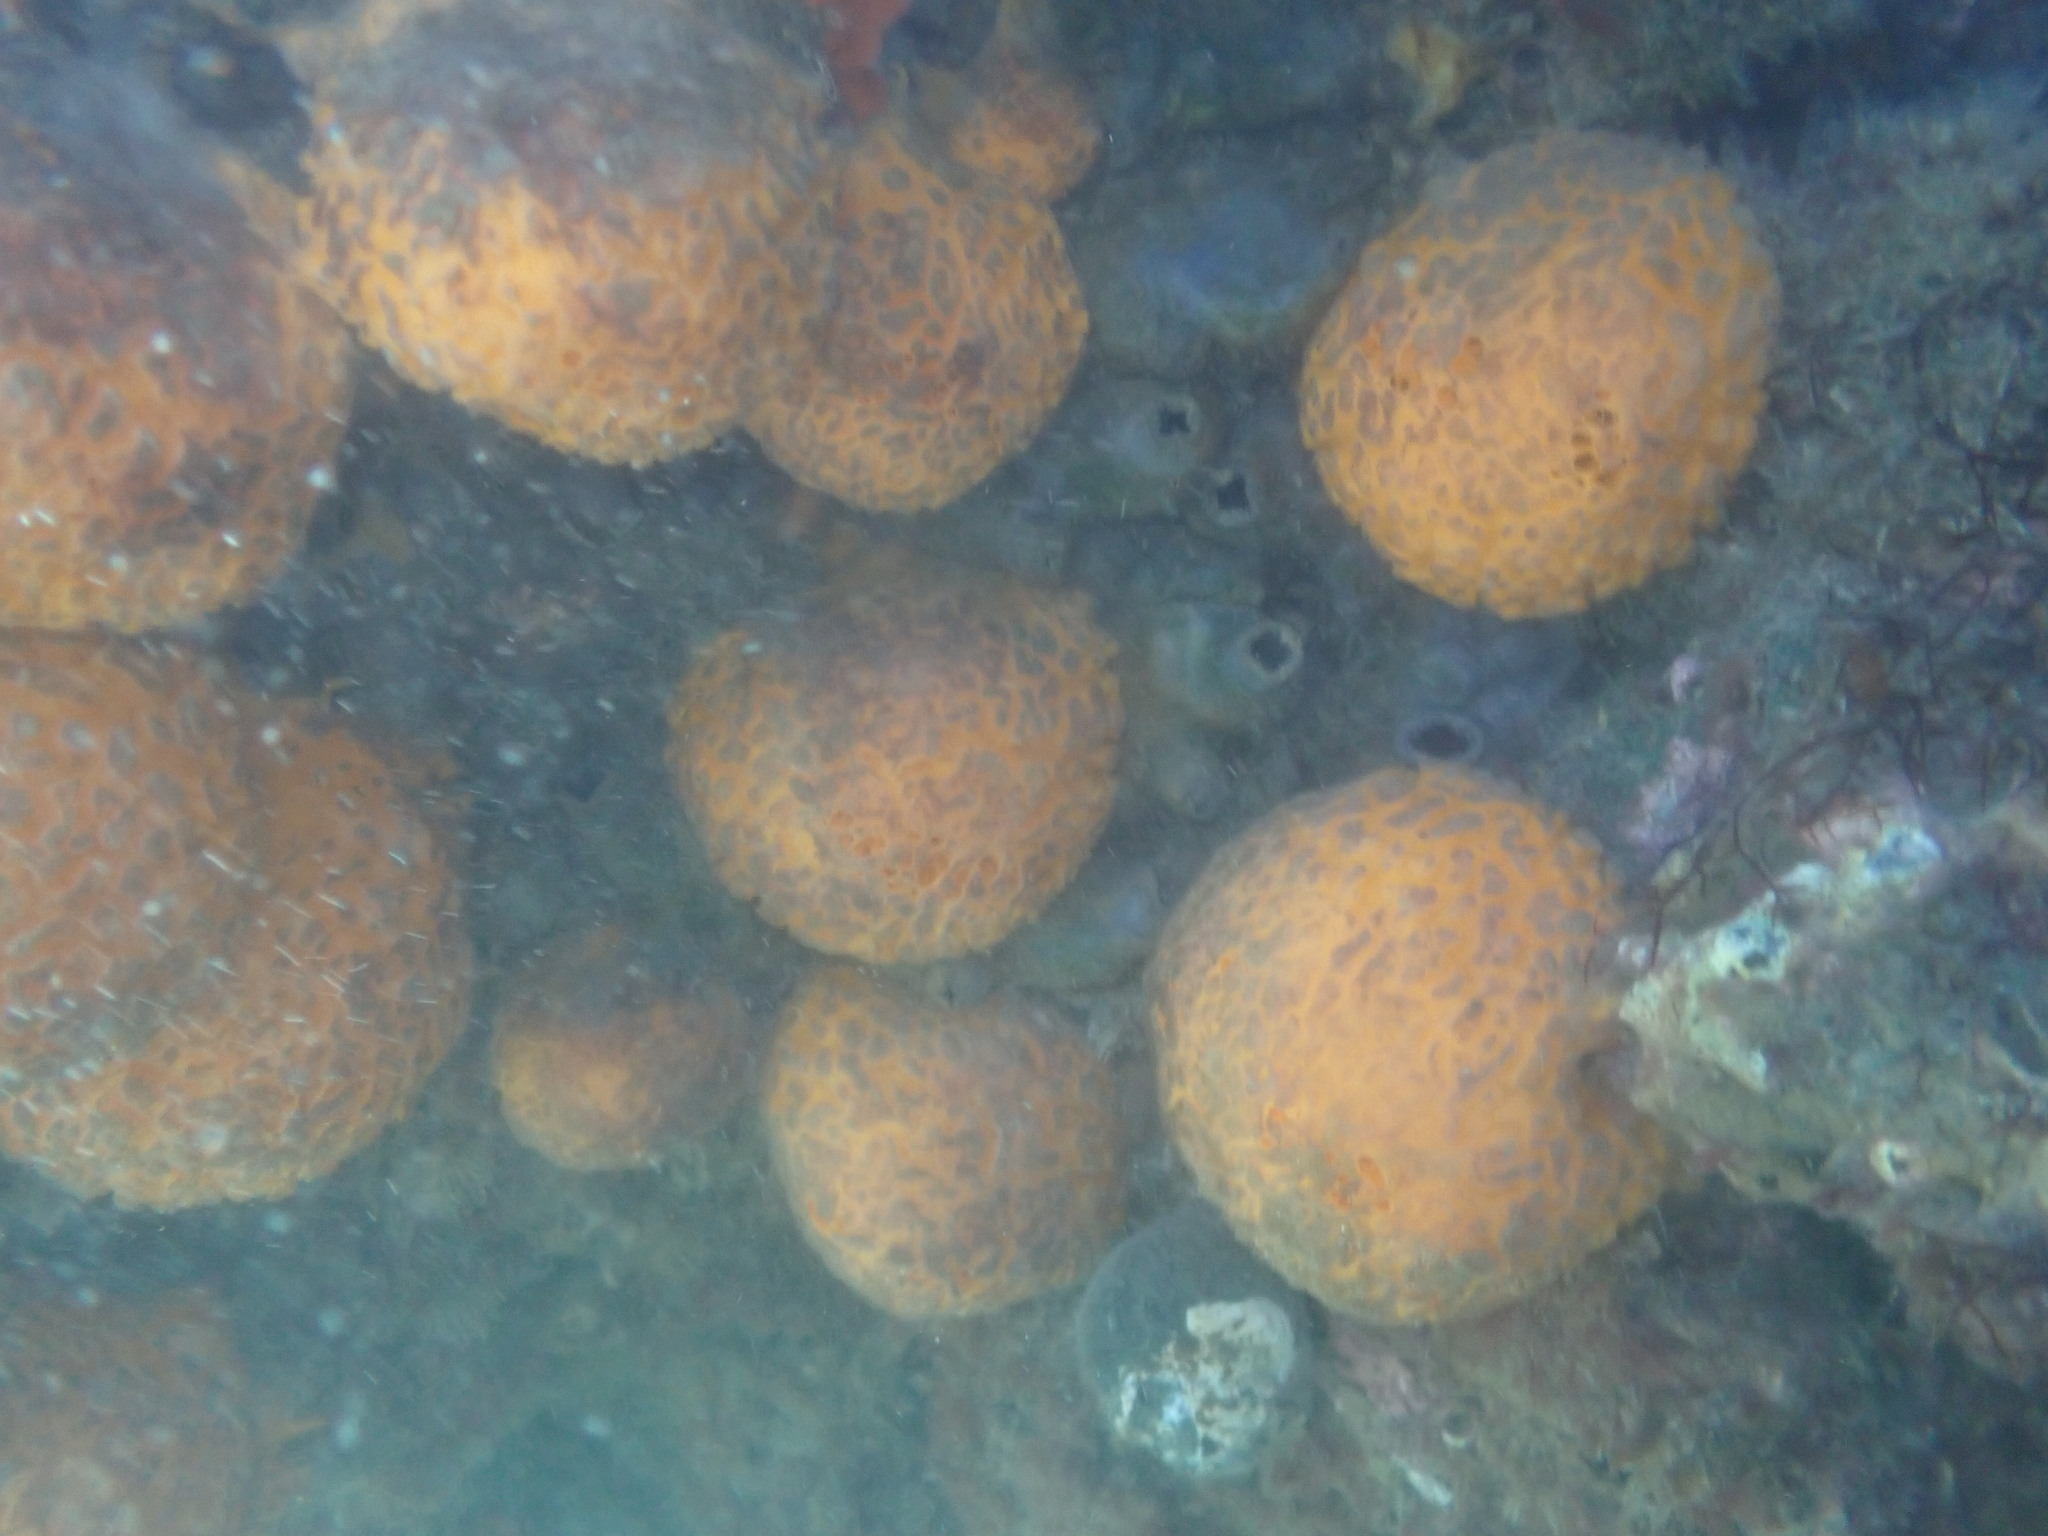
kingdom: Animalia
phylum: Porifera
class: Demospongiae
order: Tethyida
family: Tethyidae
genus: Tethya
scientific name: Tethya burtoni
